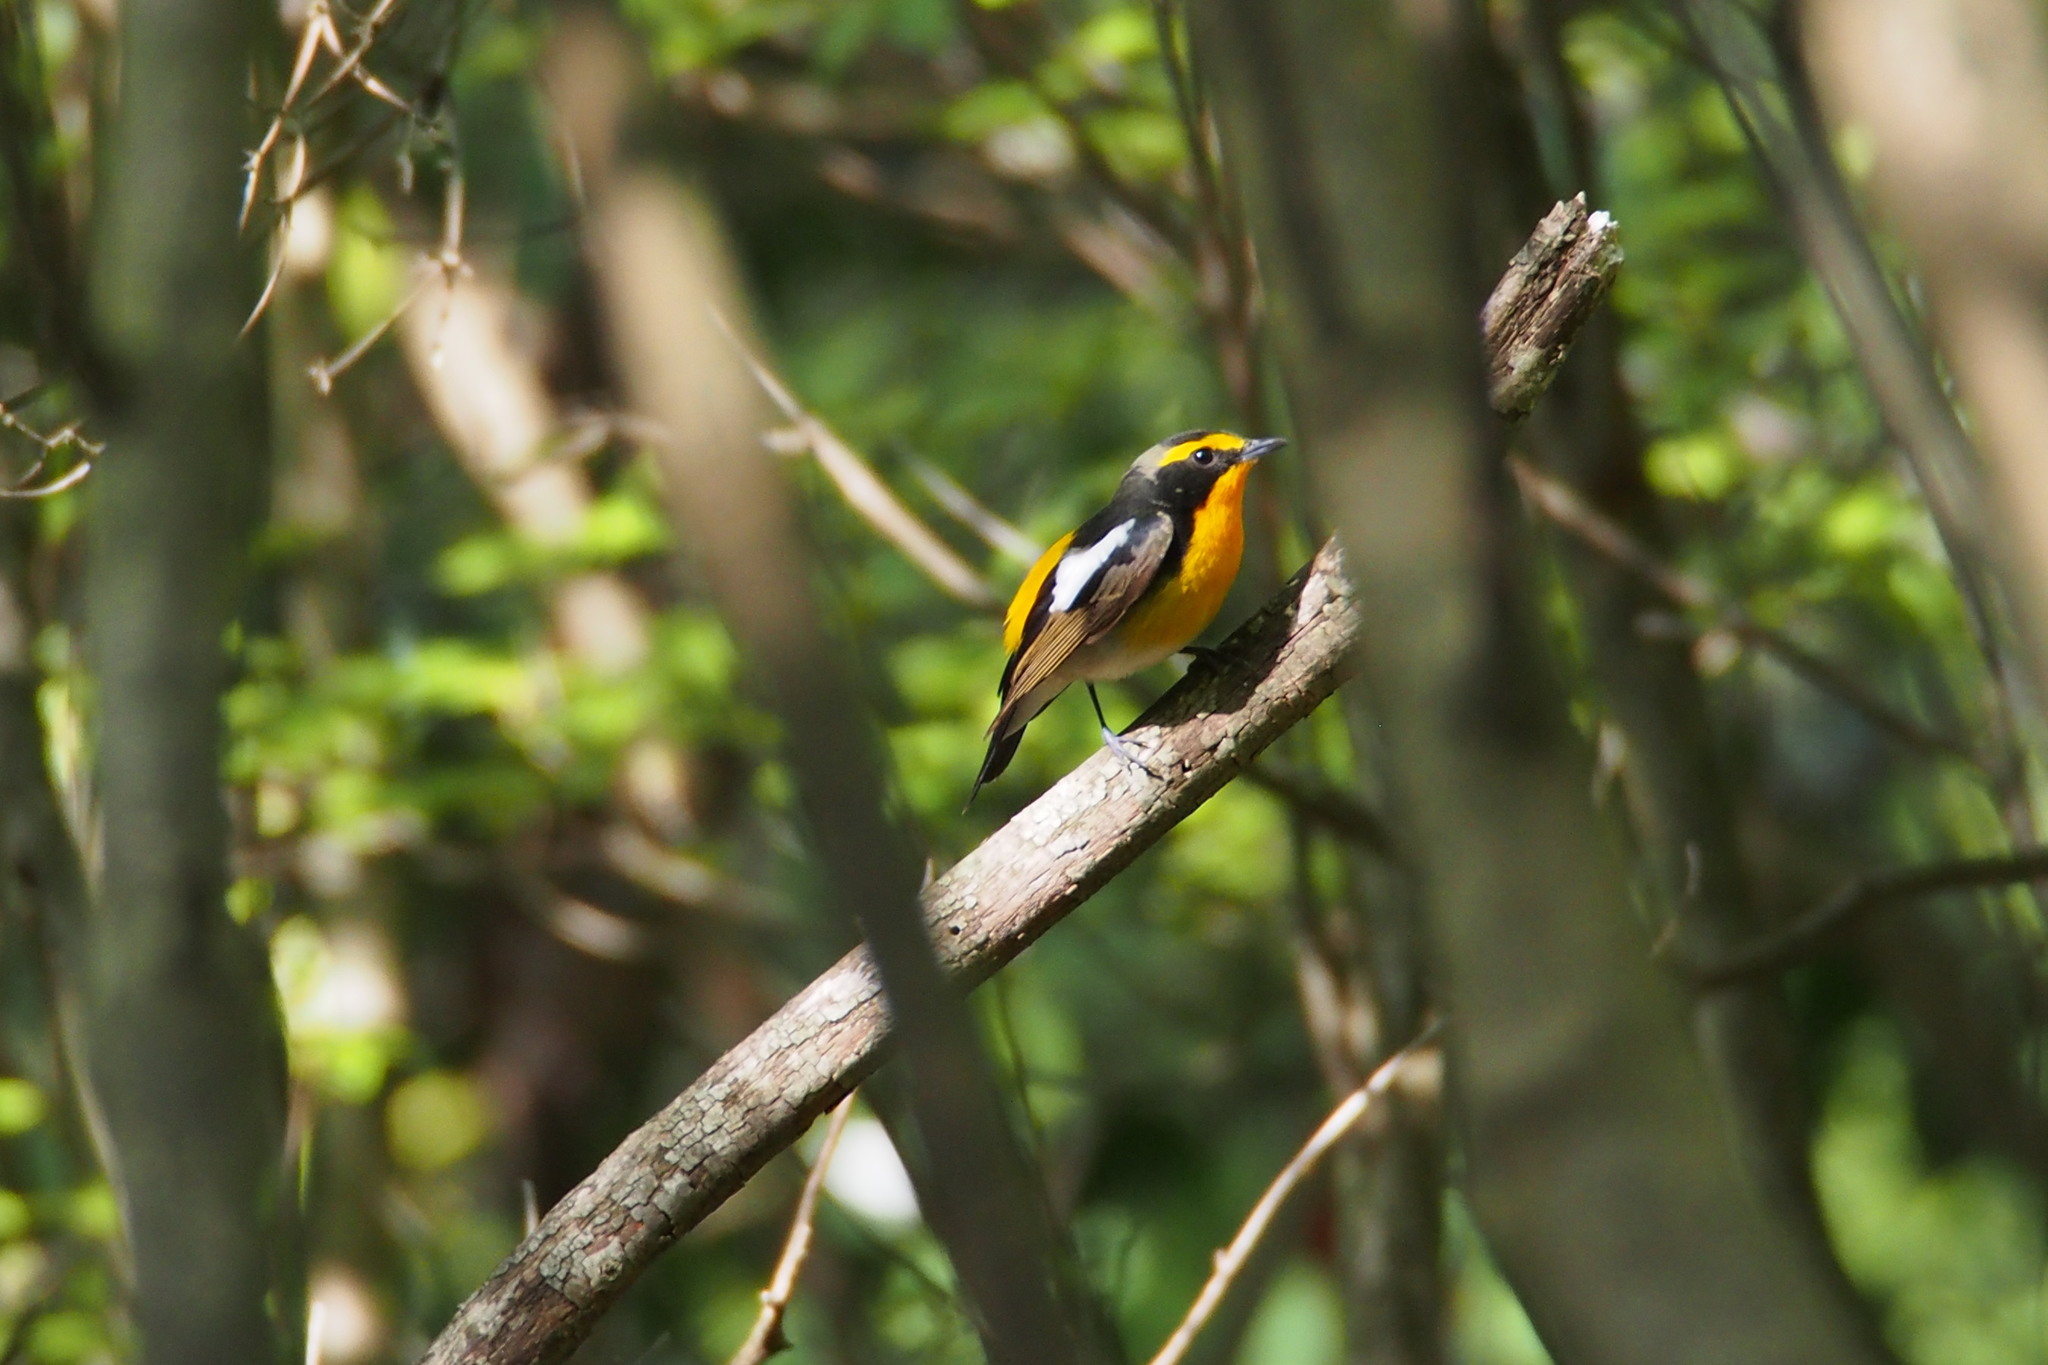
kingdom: Animalia
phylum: Chordata
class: Aves
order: Passeriformes
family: Muscicapidae
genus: Ficedula
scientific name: Ficedula narcissina
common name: Narcissus flycatcher
